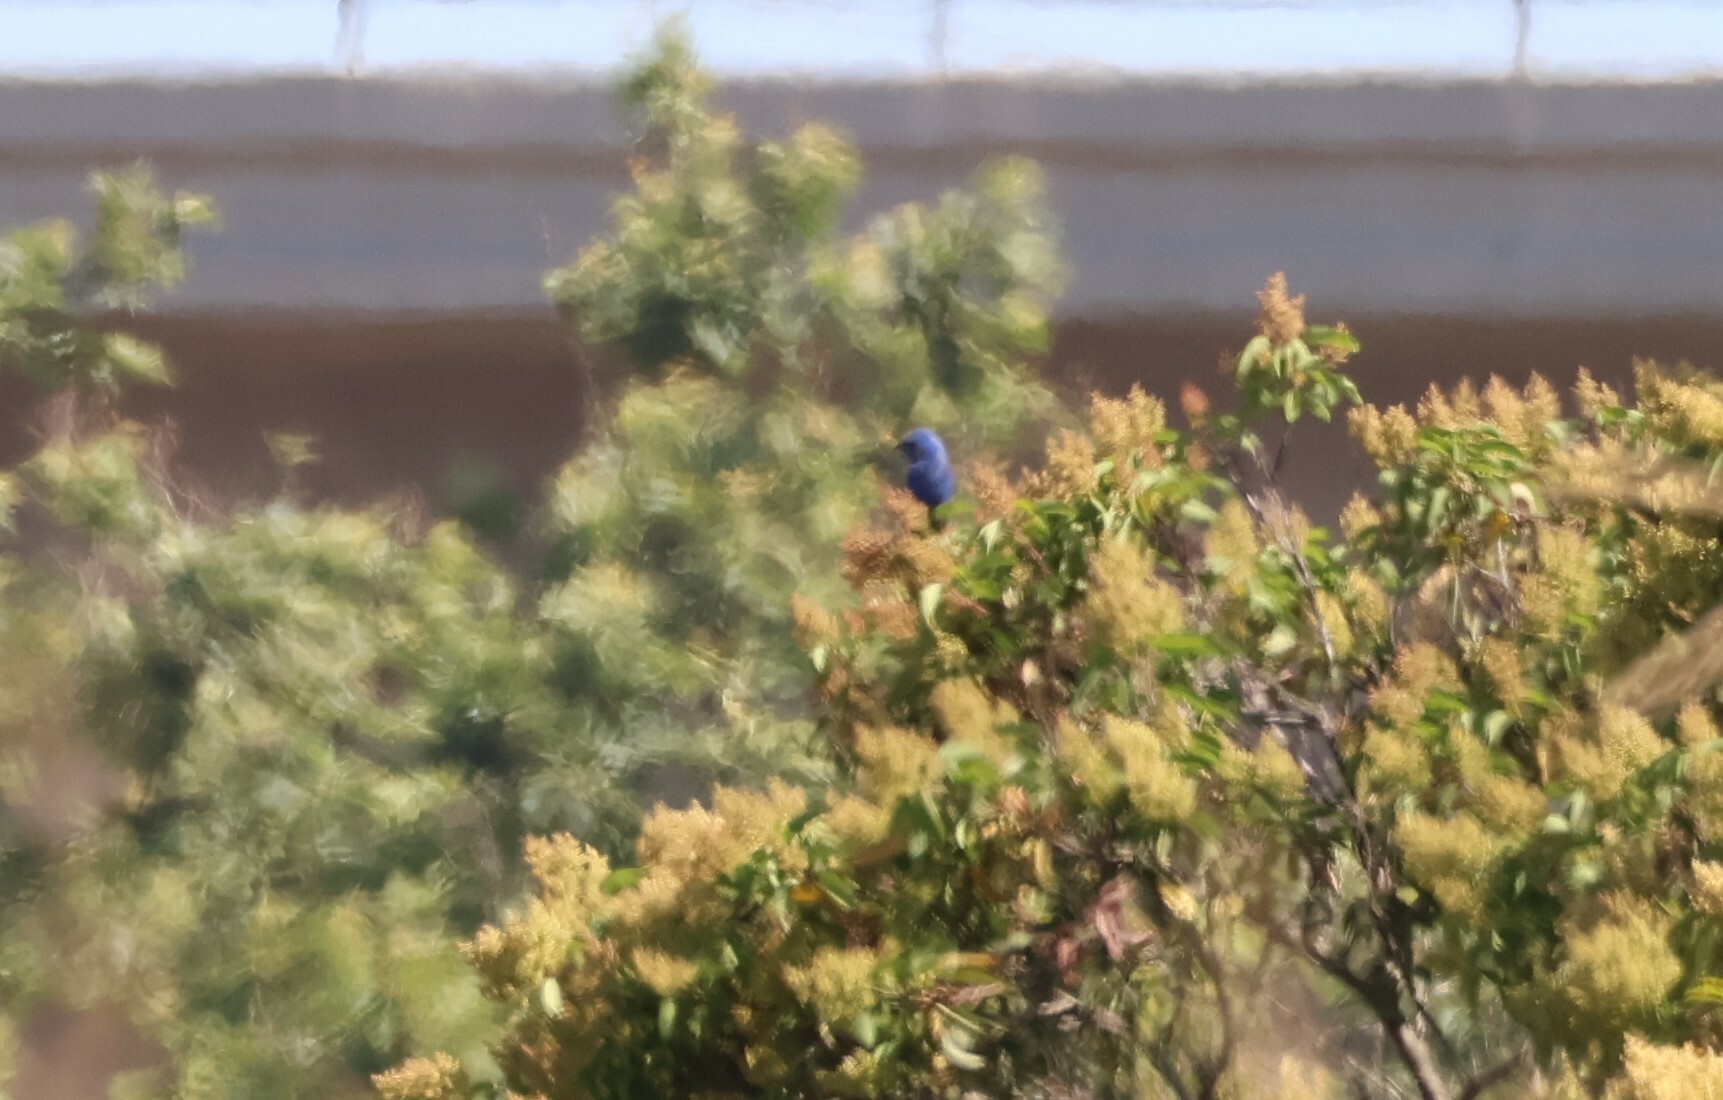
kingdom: Animalia
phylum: Chordata
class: Aves
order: Passeriformes
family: Cardinalidae
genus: Passerina
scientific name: Passerina caerulea
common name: Blue grosbeak
